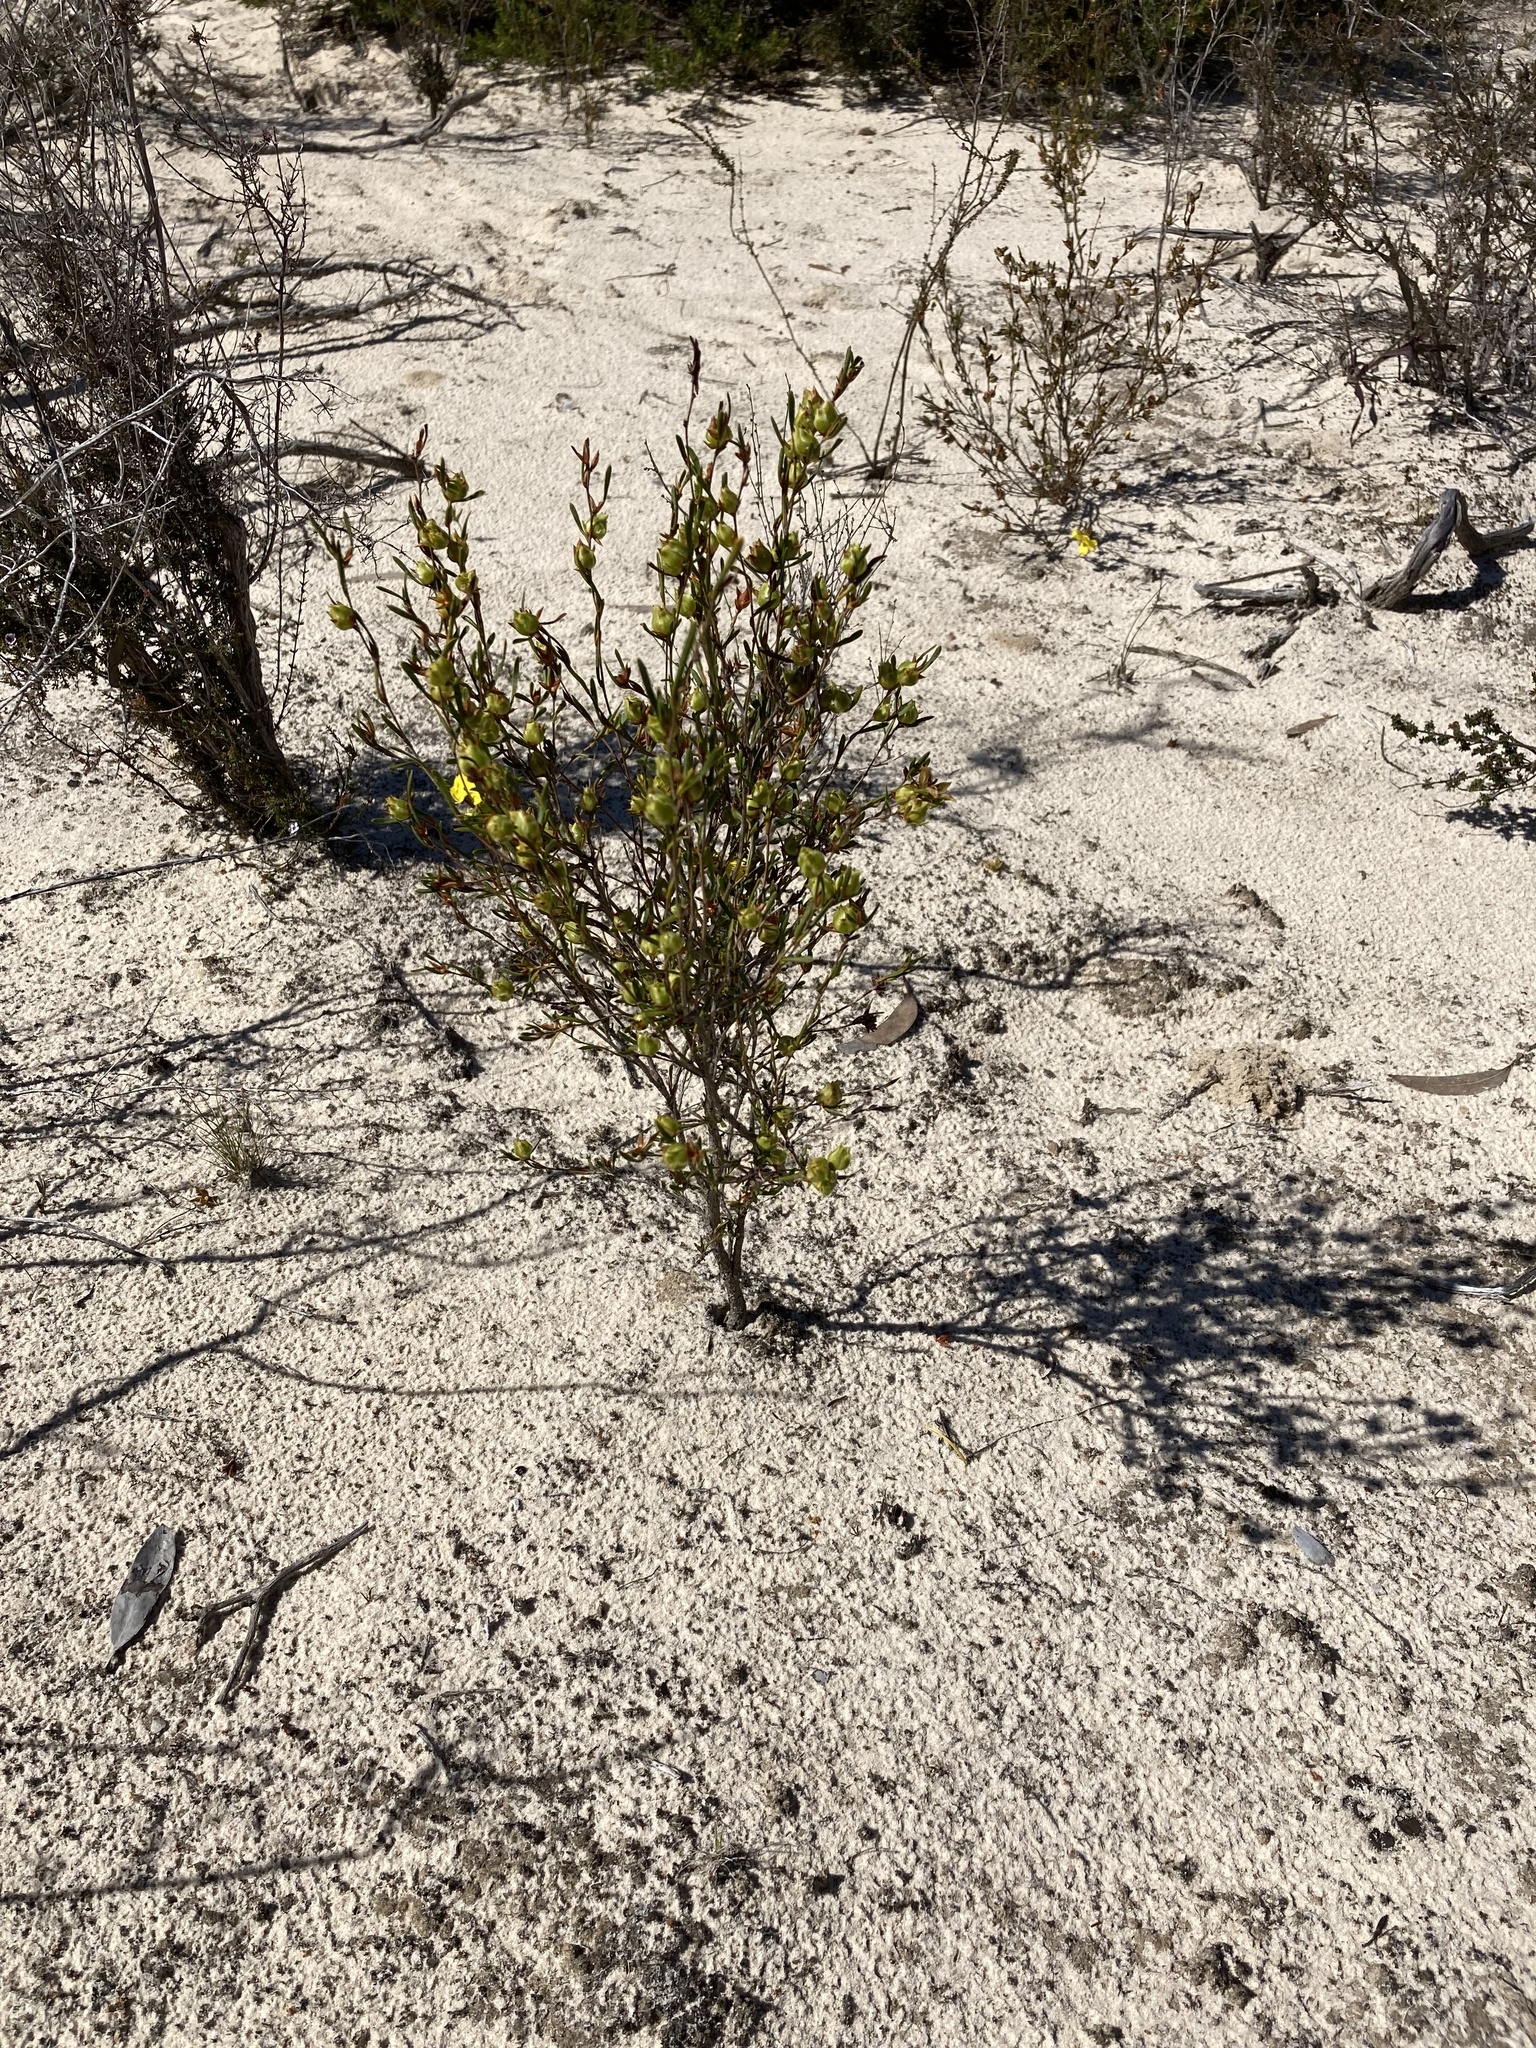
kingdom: Plantae
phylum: Tracheophyta
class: Magnoliopsida
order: Dilleniales
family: Dilleniaceae
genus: Hibbertia
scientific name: Hibbertia virgata
